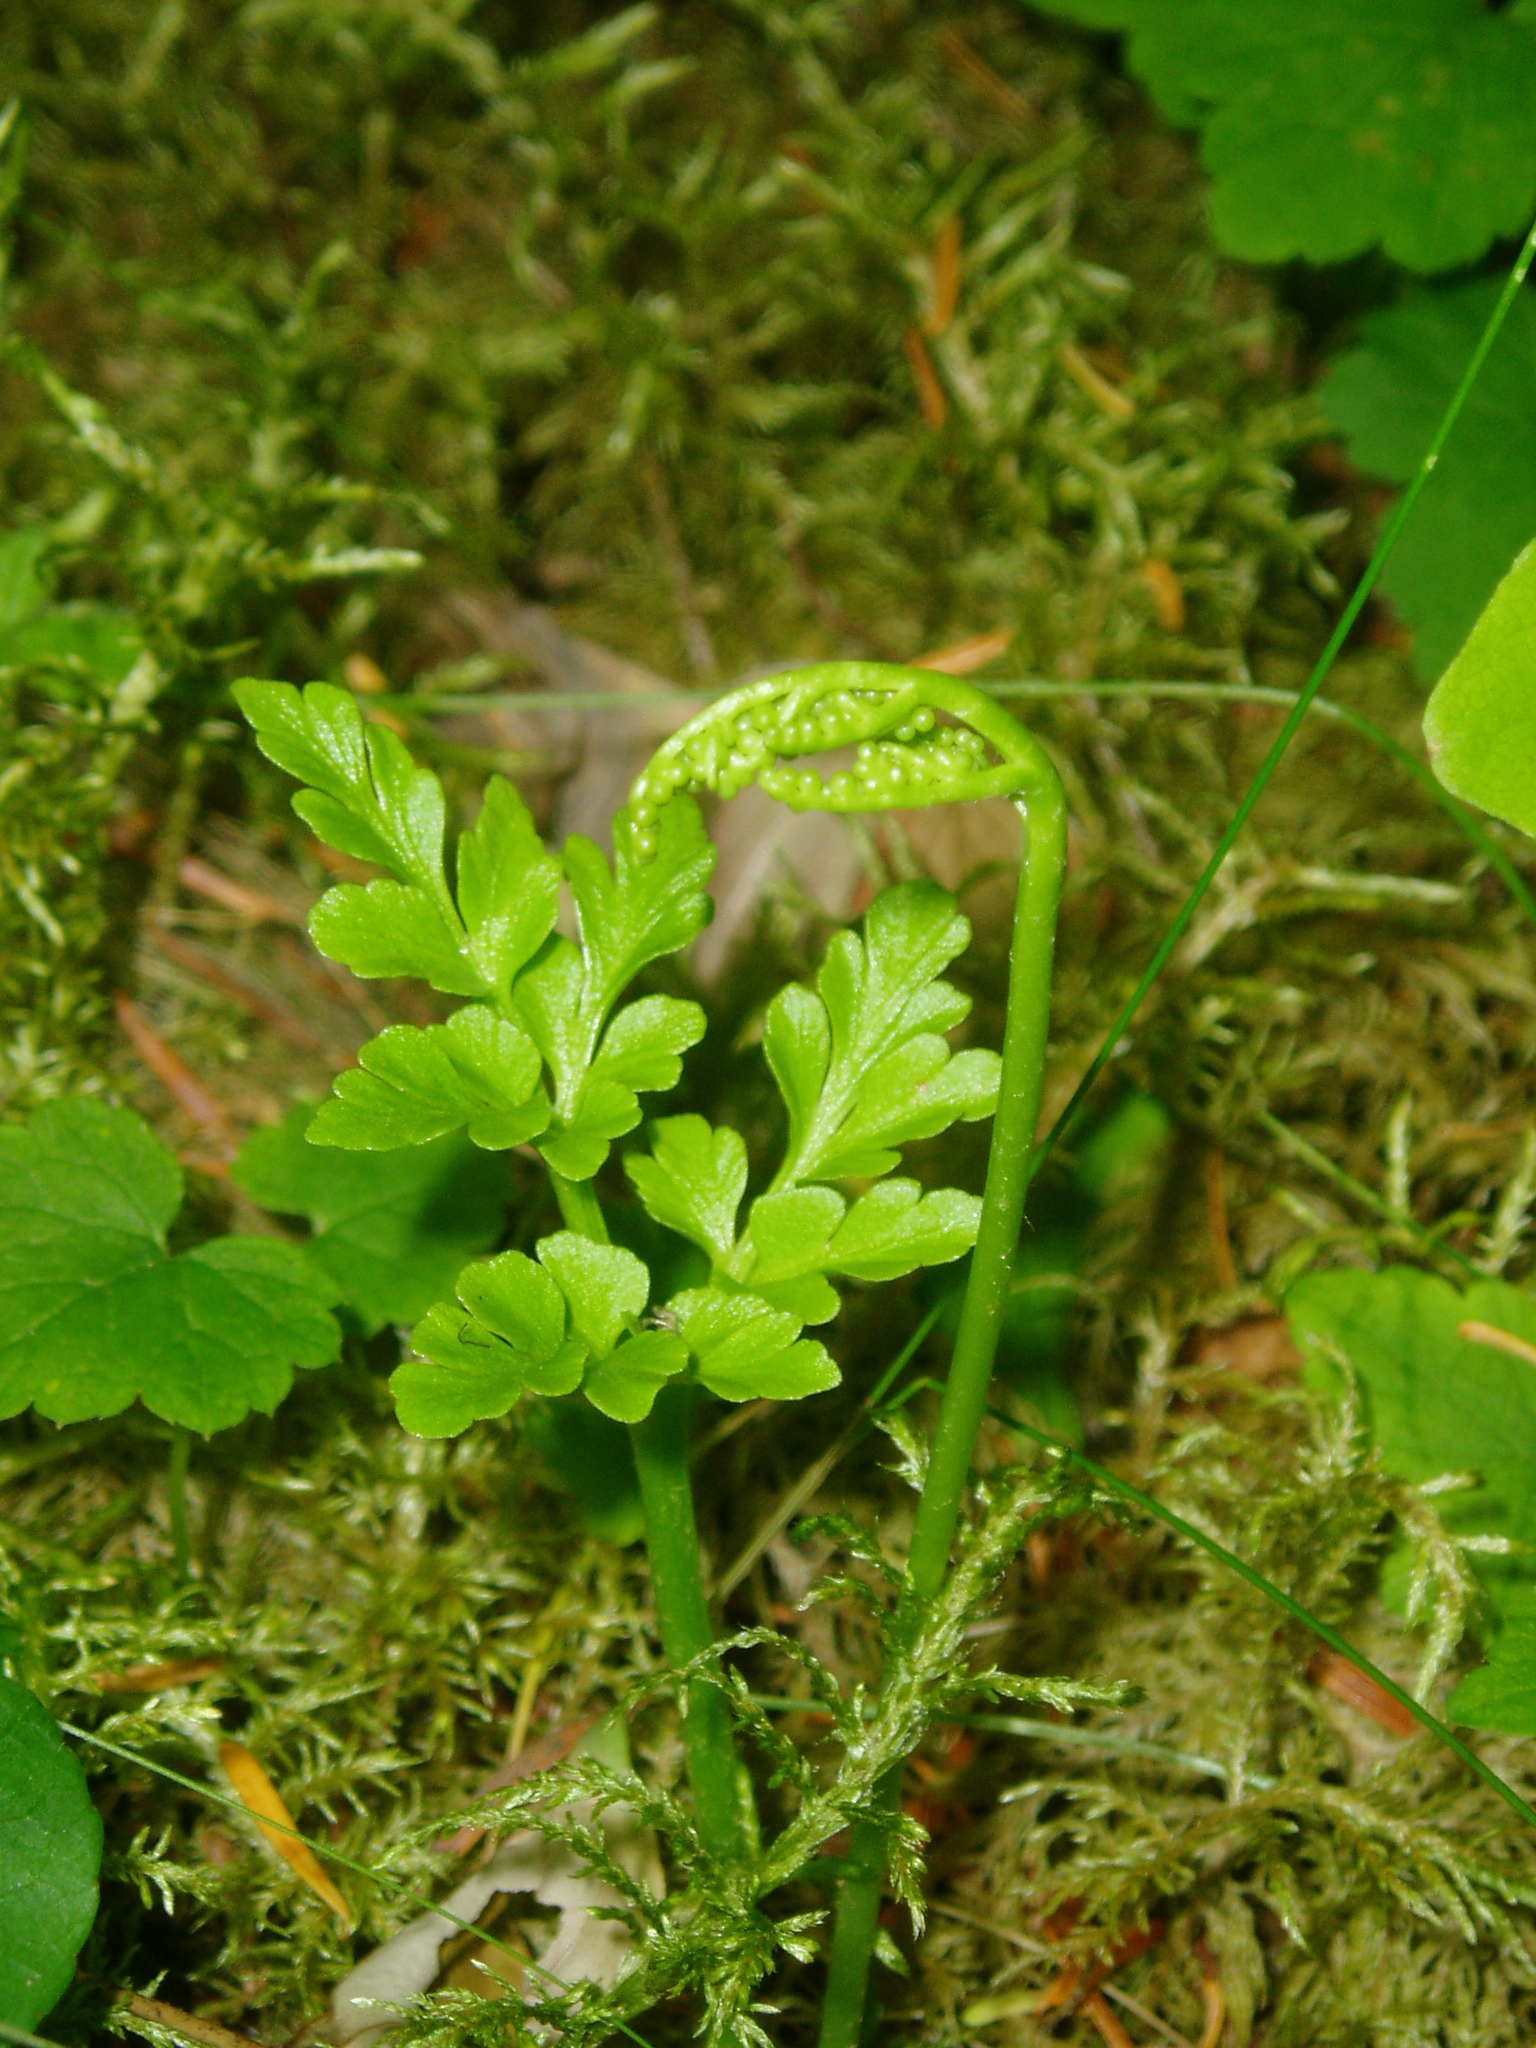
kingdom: Plantae
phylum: Tracheophyta
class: Polypodiopsida
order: Ophioglossales
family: Ophioglossaceae
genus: Sceptridium
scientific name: Sceptridium multifidum
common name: Leathery grape fern
